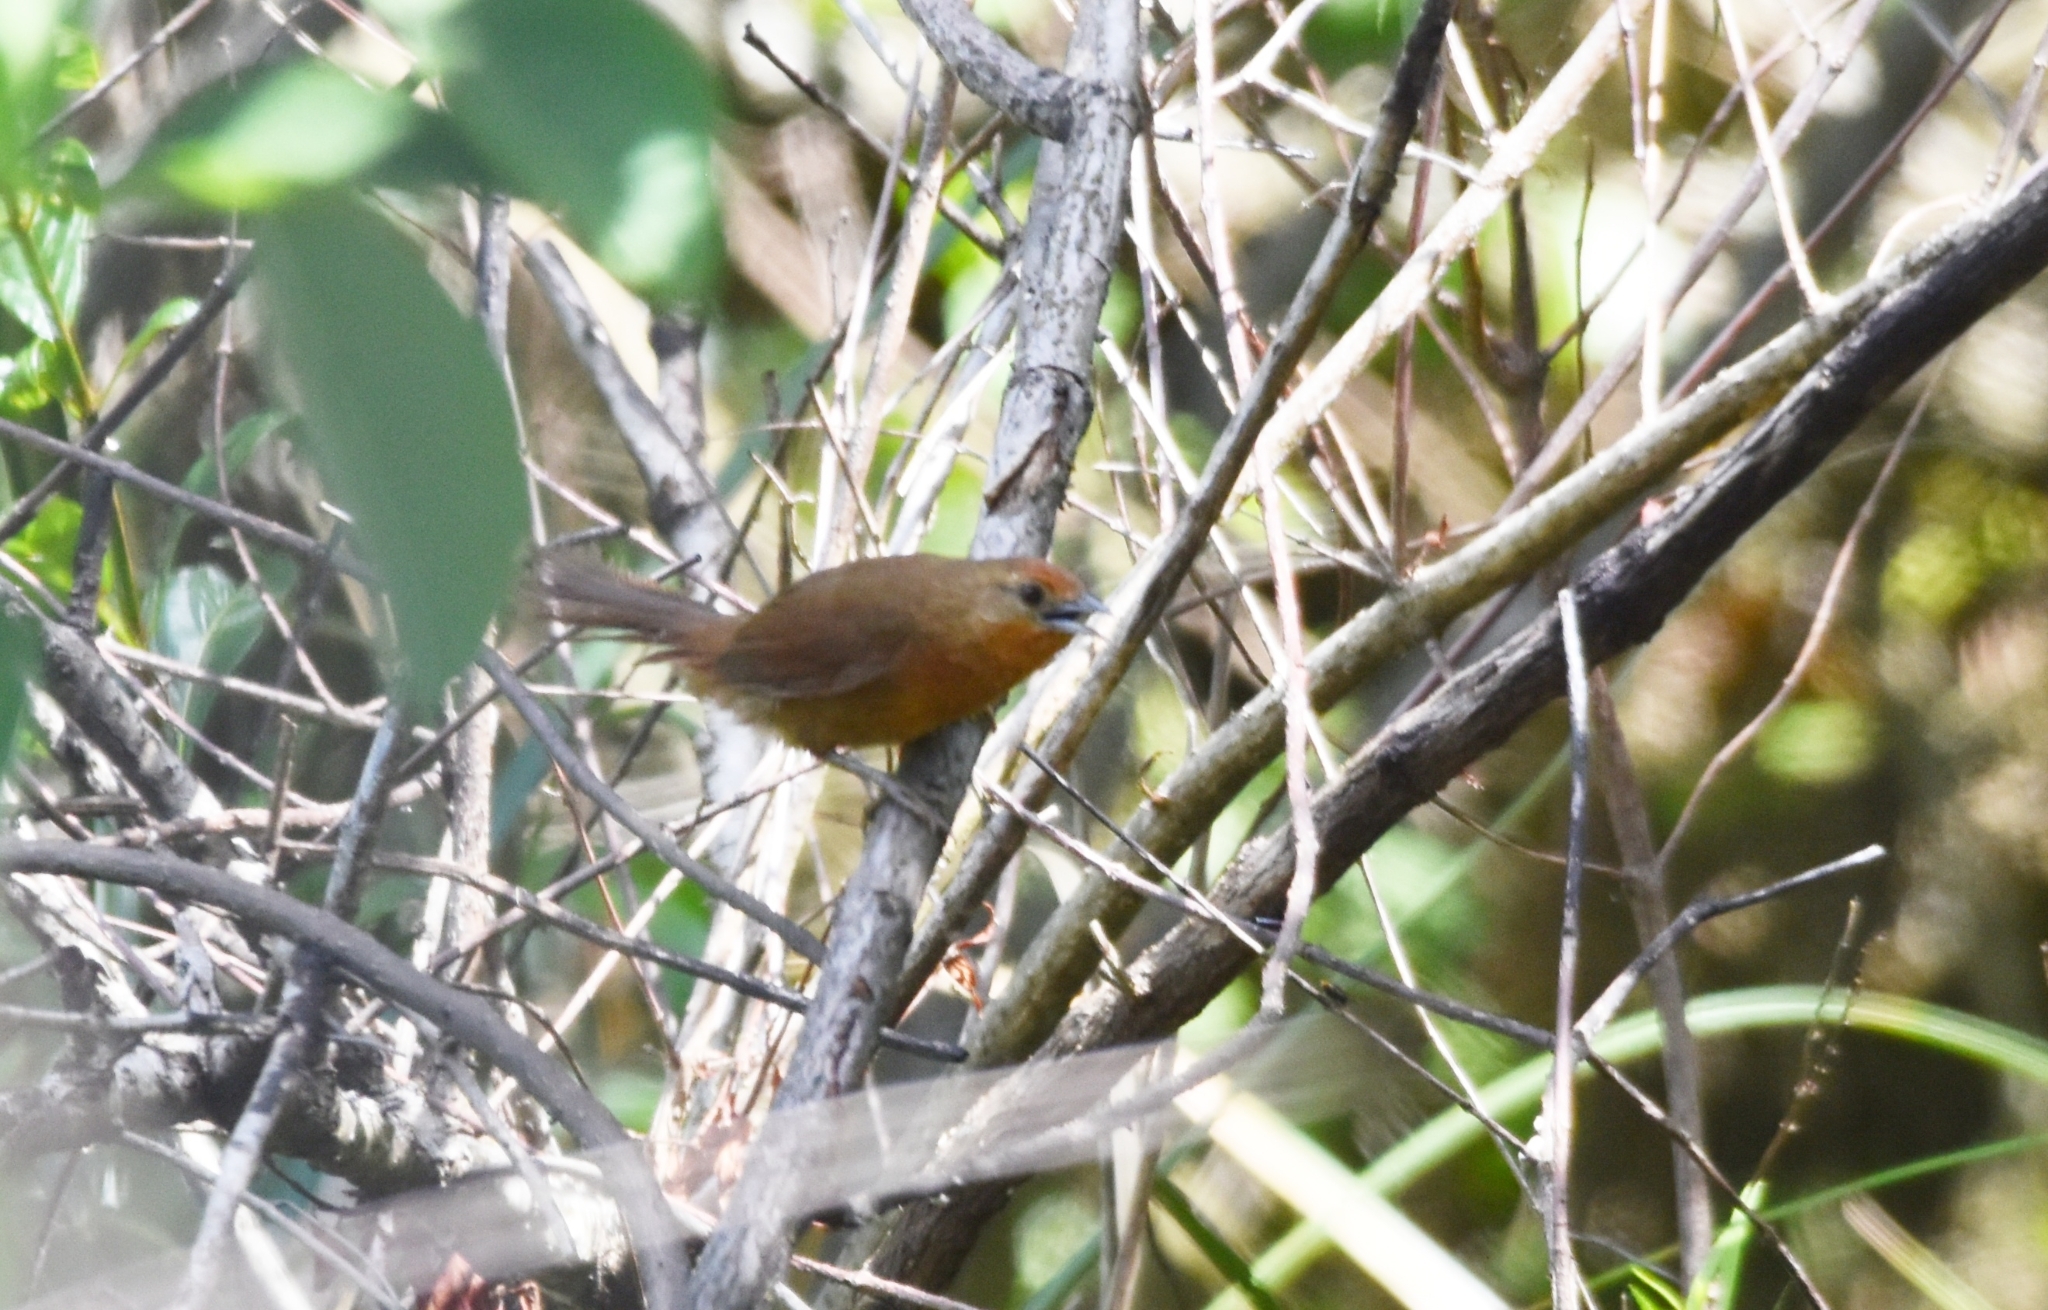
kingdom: Animalia
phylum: Chordata
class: Aves
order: Passeriformes
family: Furnariidae
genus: Phacellodomus
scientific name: Phacellodomus erythrophthalmus
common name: Orange-eyed thornbird
